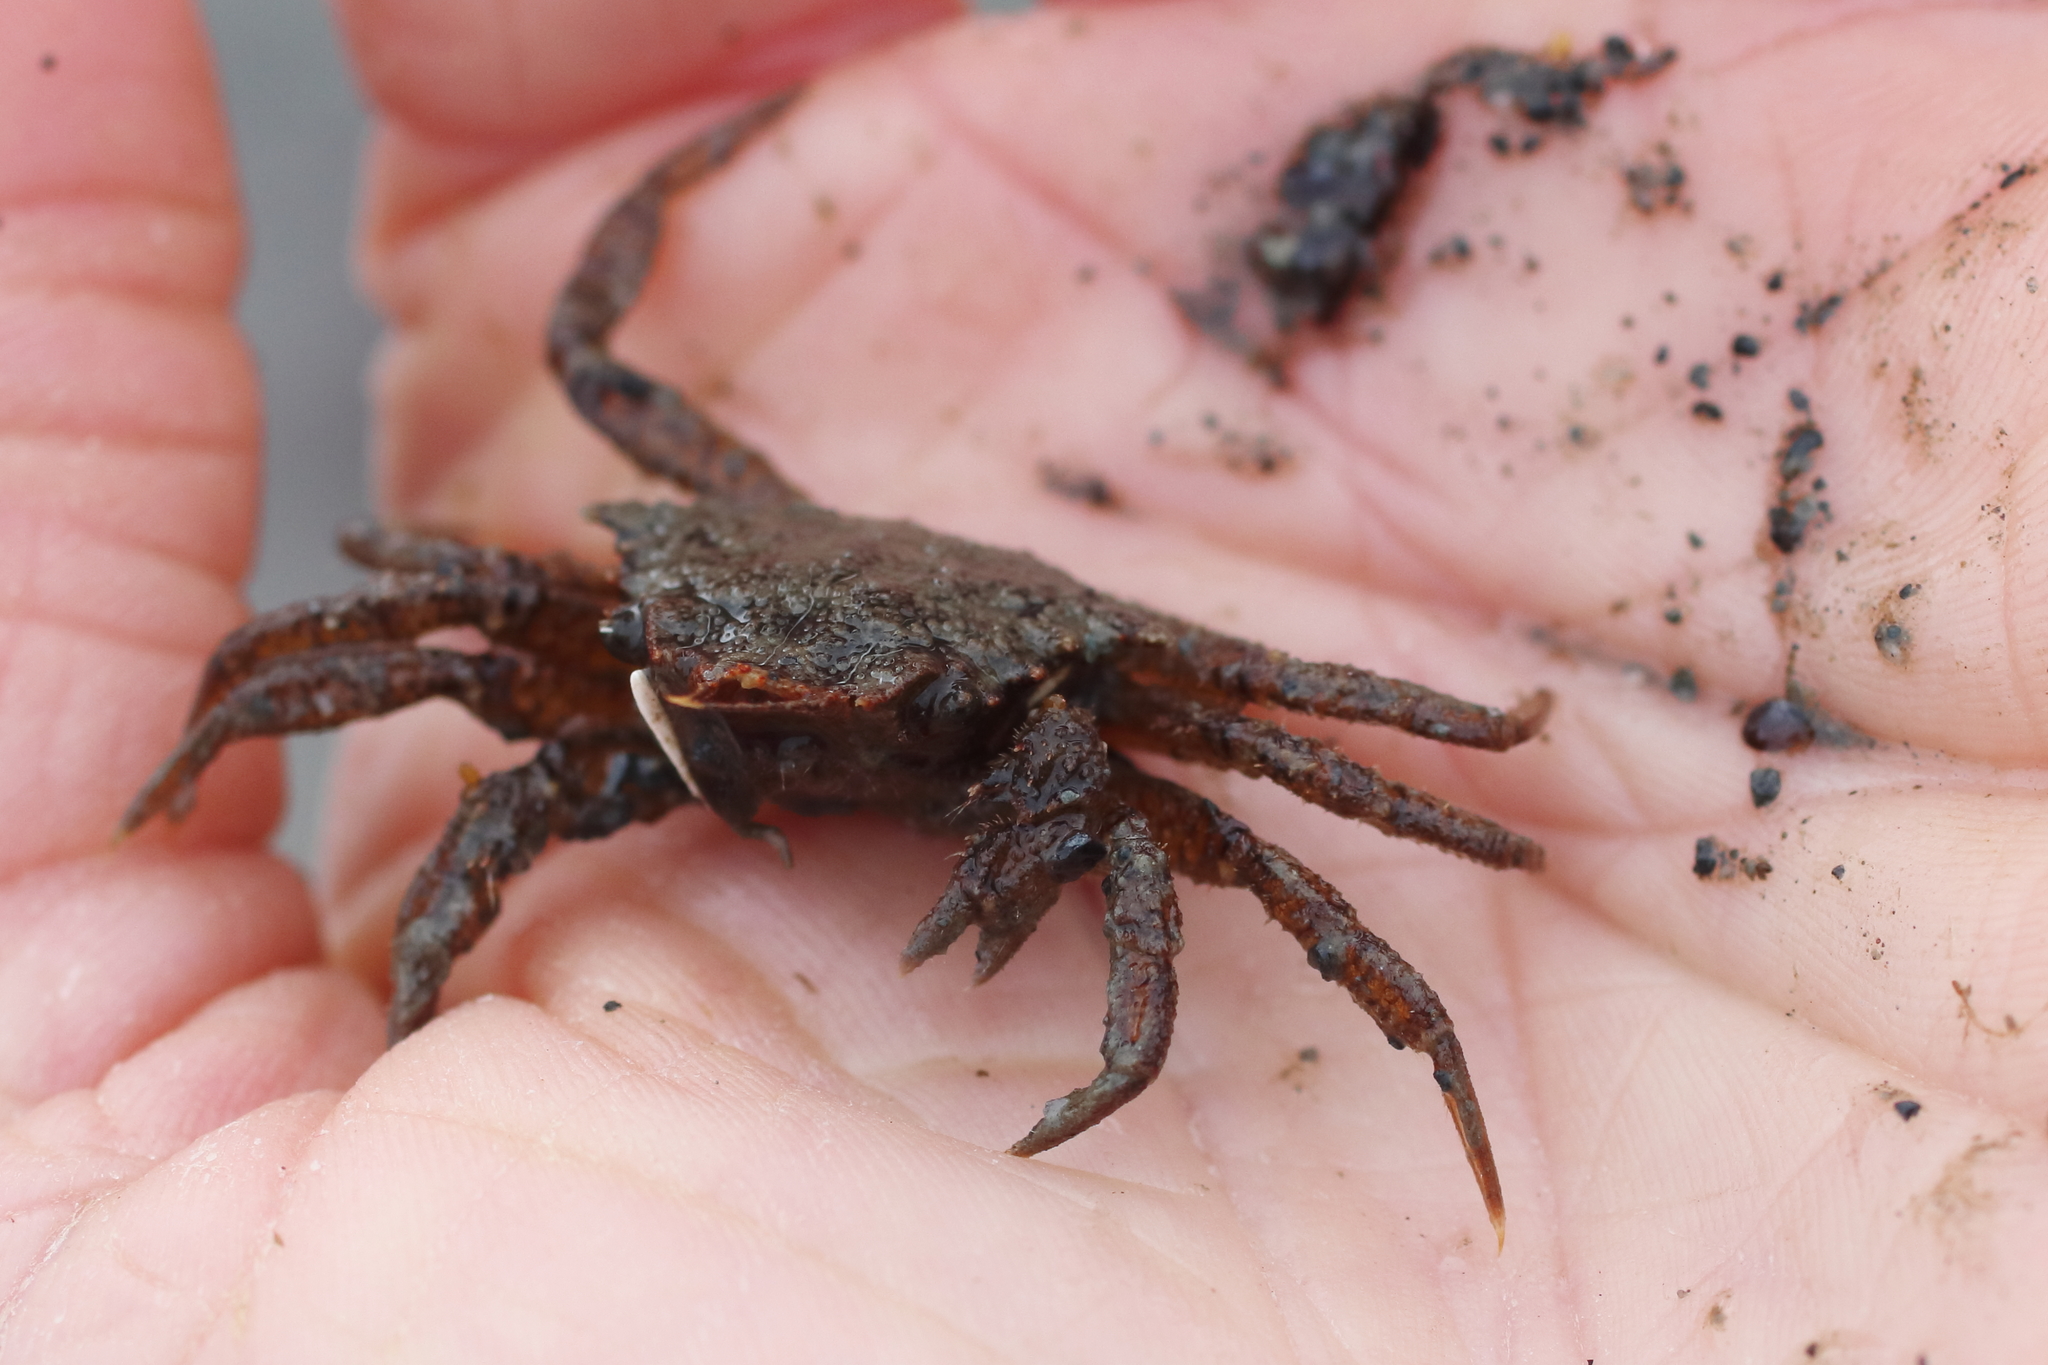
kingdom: Animalia
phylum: Arthropoda
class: Malacostraca
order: Decapoda
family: Cheiragonidae
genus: Telmessus
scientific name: Telmessus cheiragonus
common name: Helmet crab
